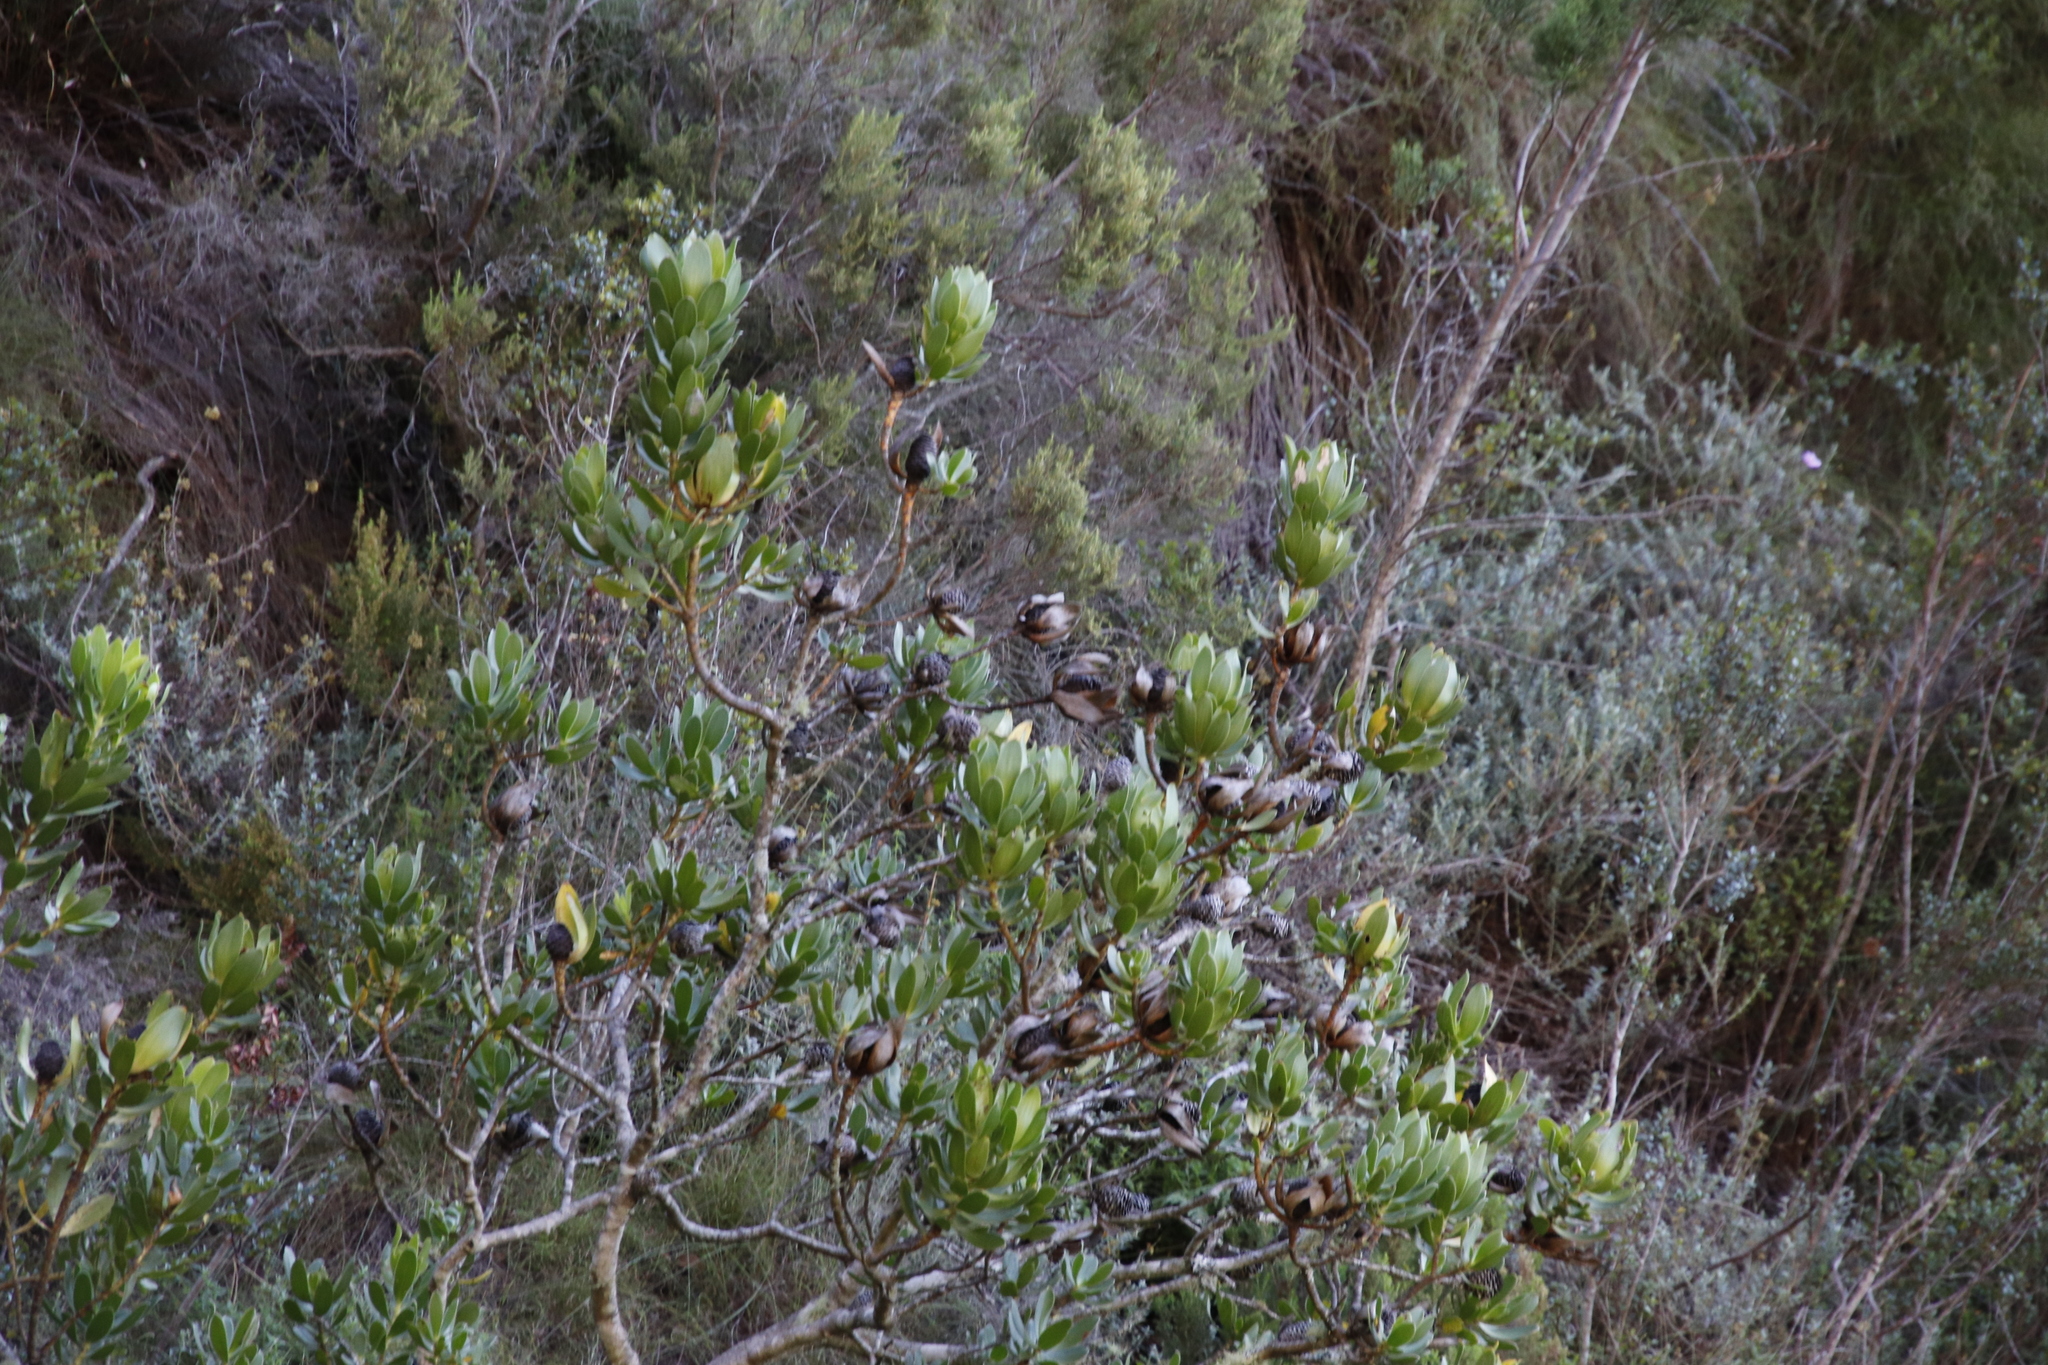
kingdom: Plantae
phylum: Tracheophyta
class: Magnoliopsida
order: Proteales
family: Proteaceae
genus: Leucadendron
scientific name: Leucadendron strobilinum
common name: Mountain rose
